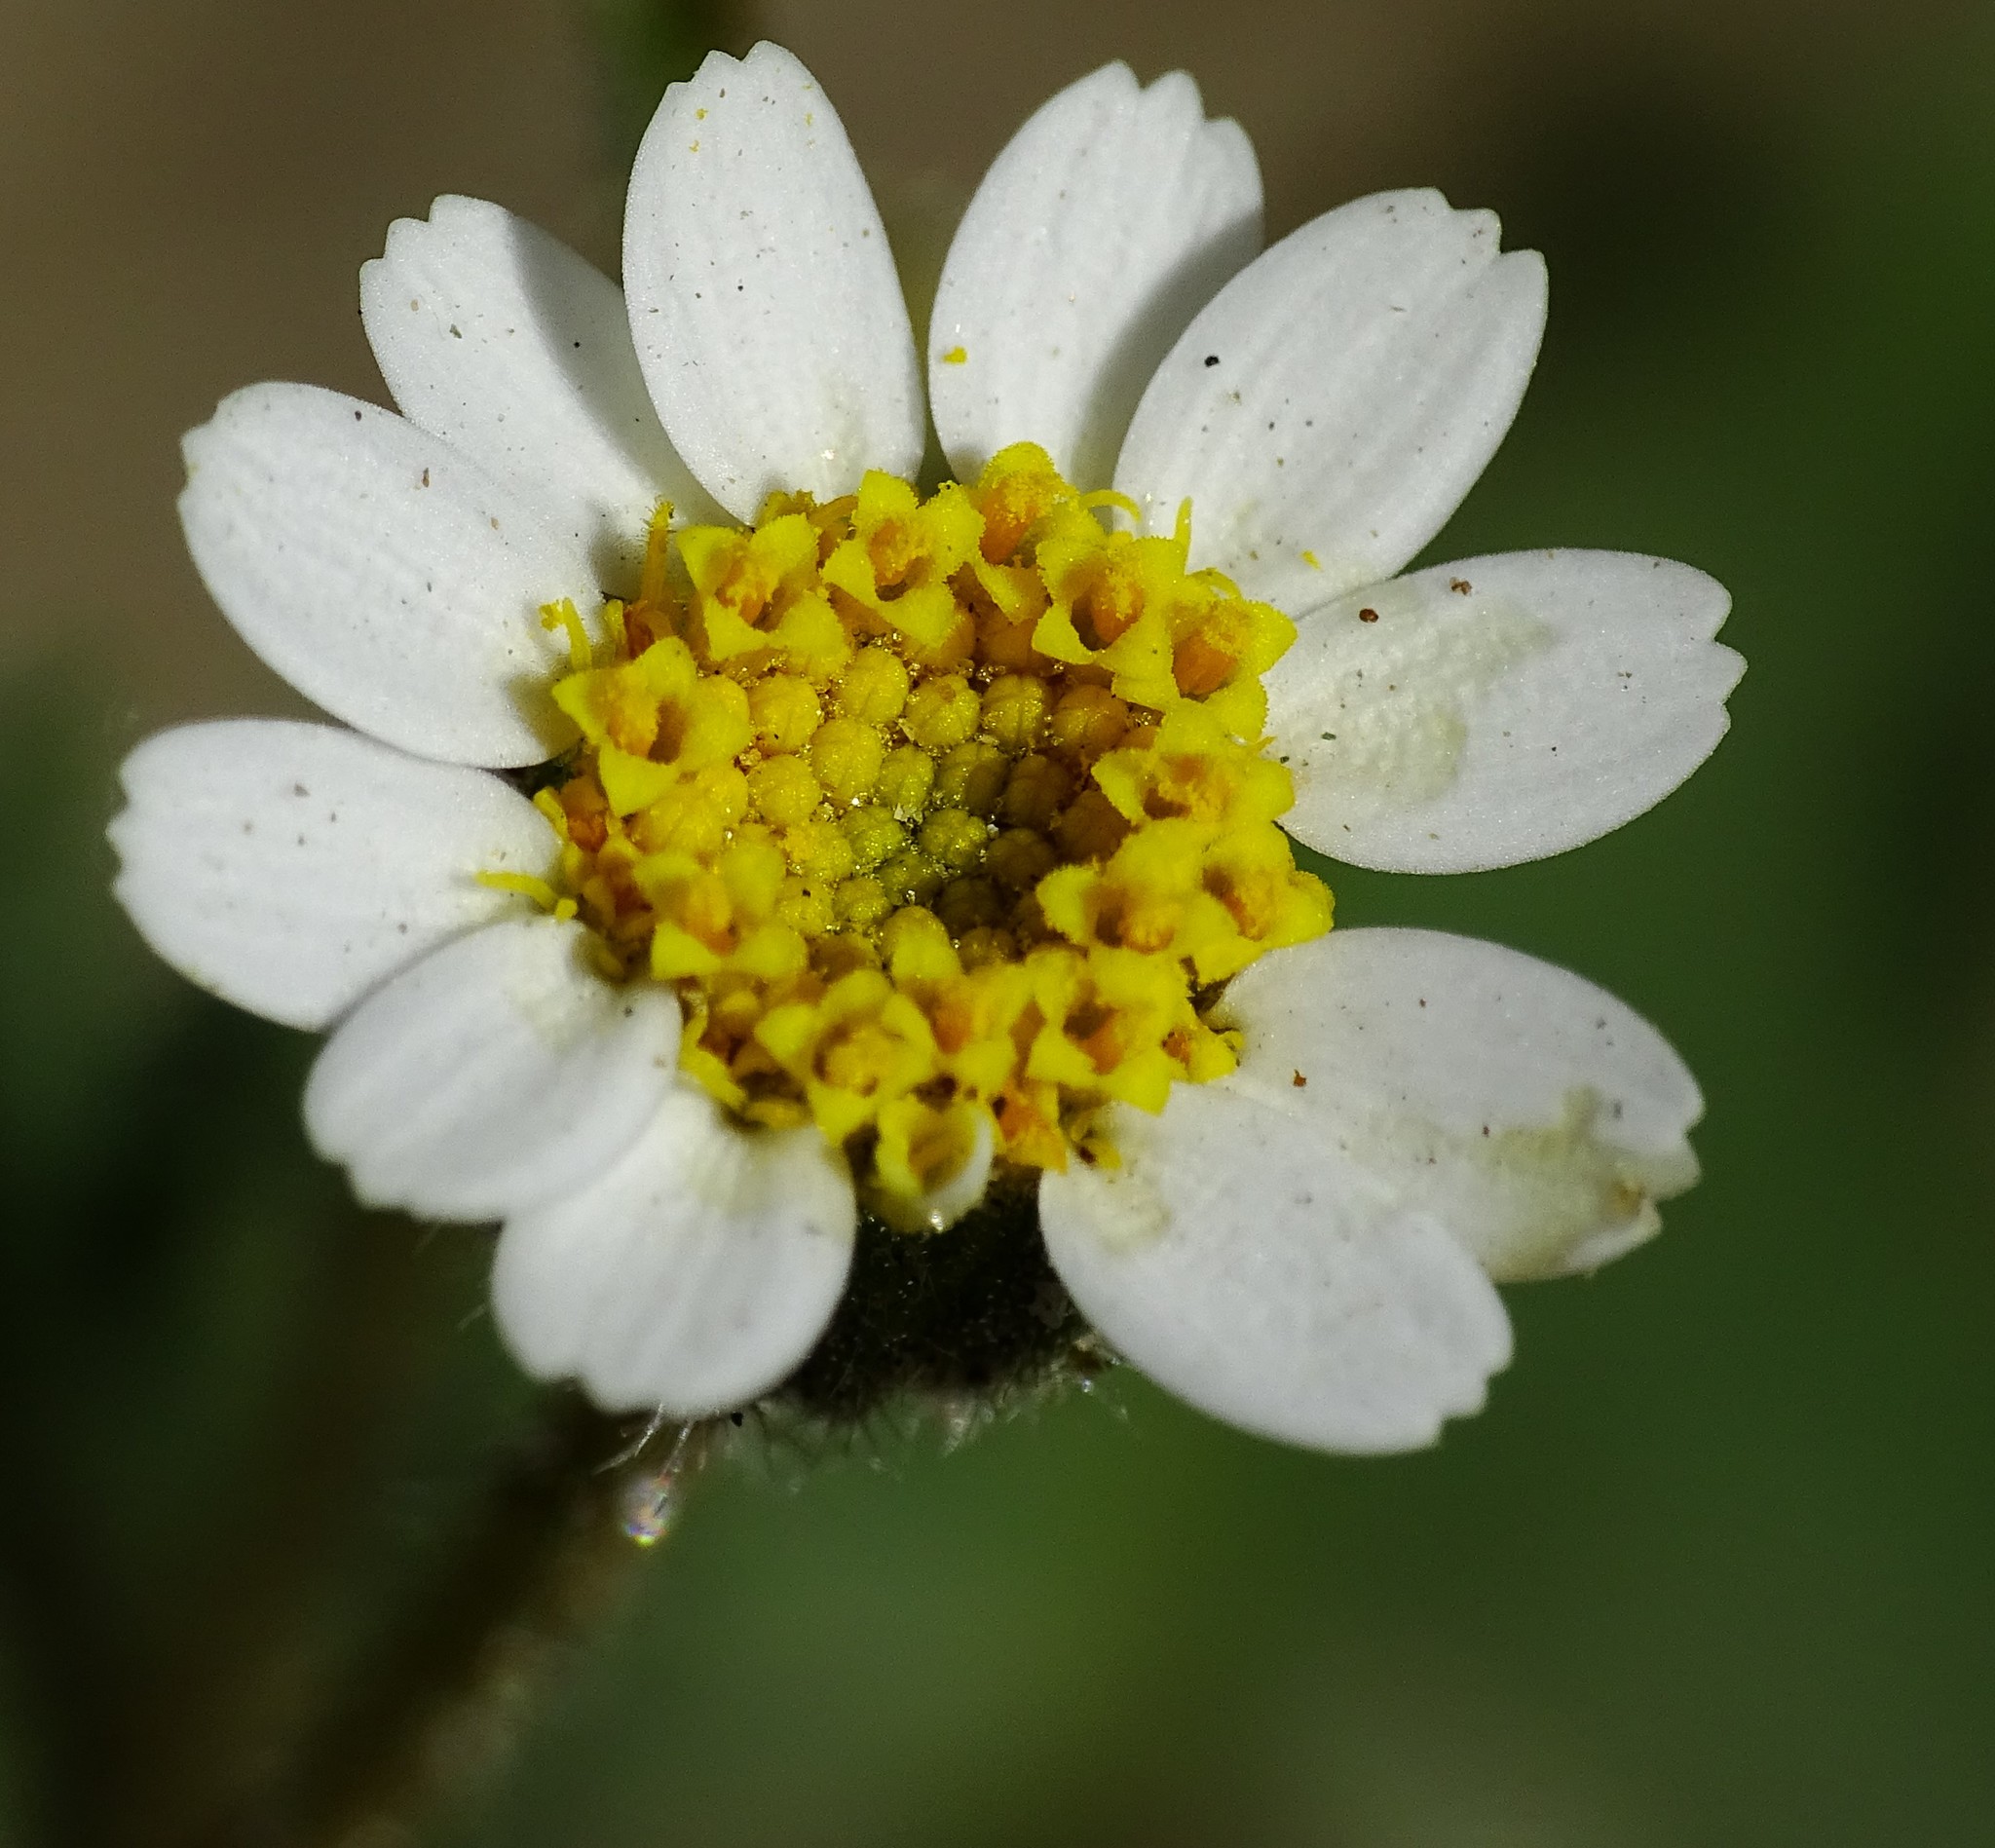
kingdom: Plantae
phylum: Tracheophyta
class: Magnoliopsida
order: Asterales
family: Asteraceae
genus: Laphamia
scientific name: Laphamia emoryi
